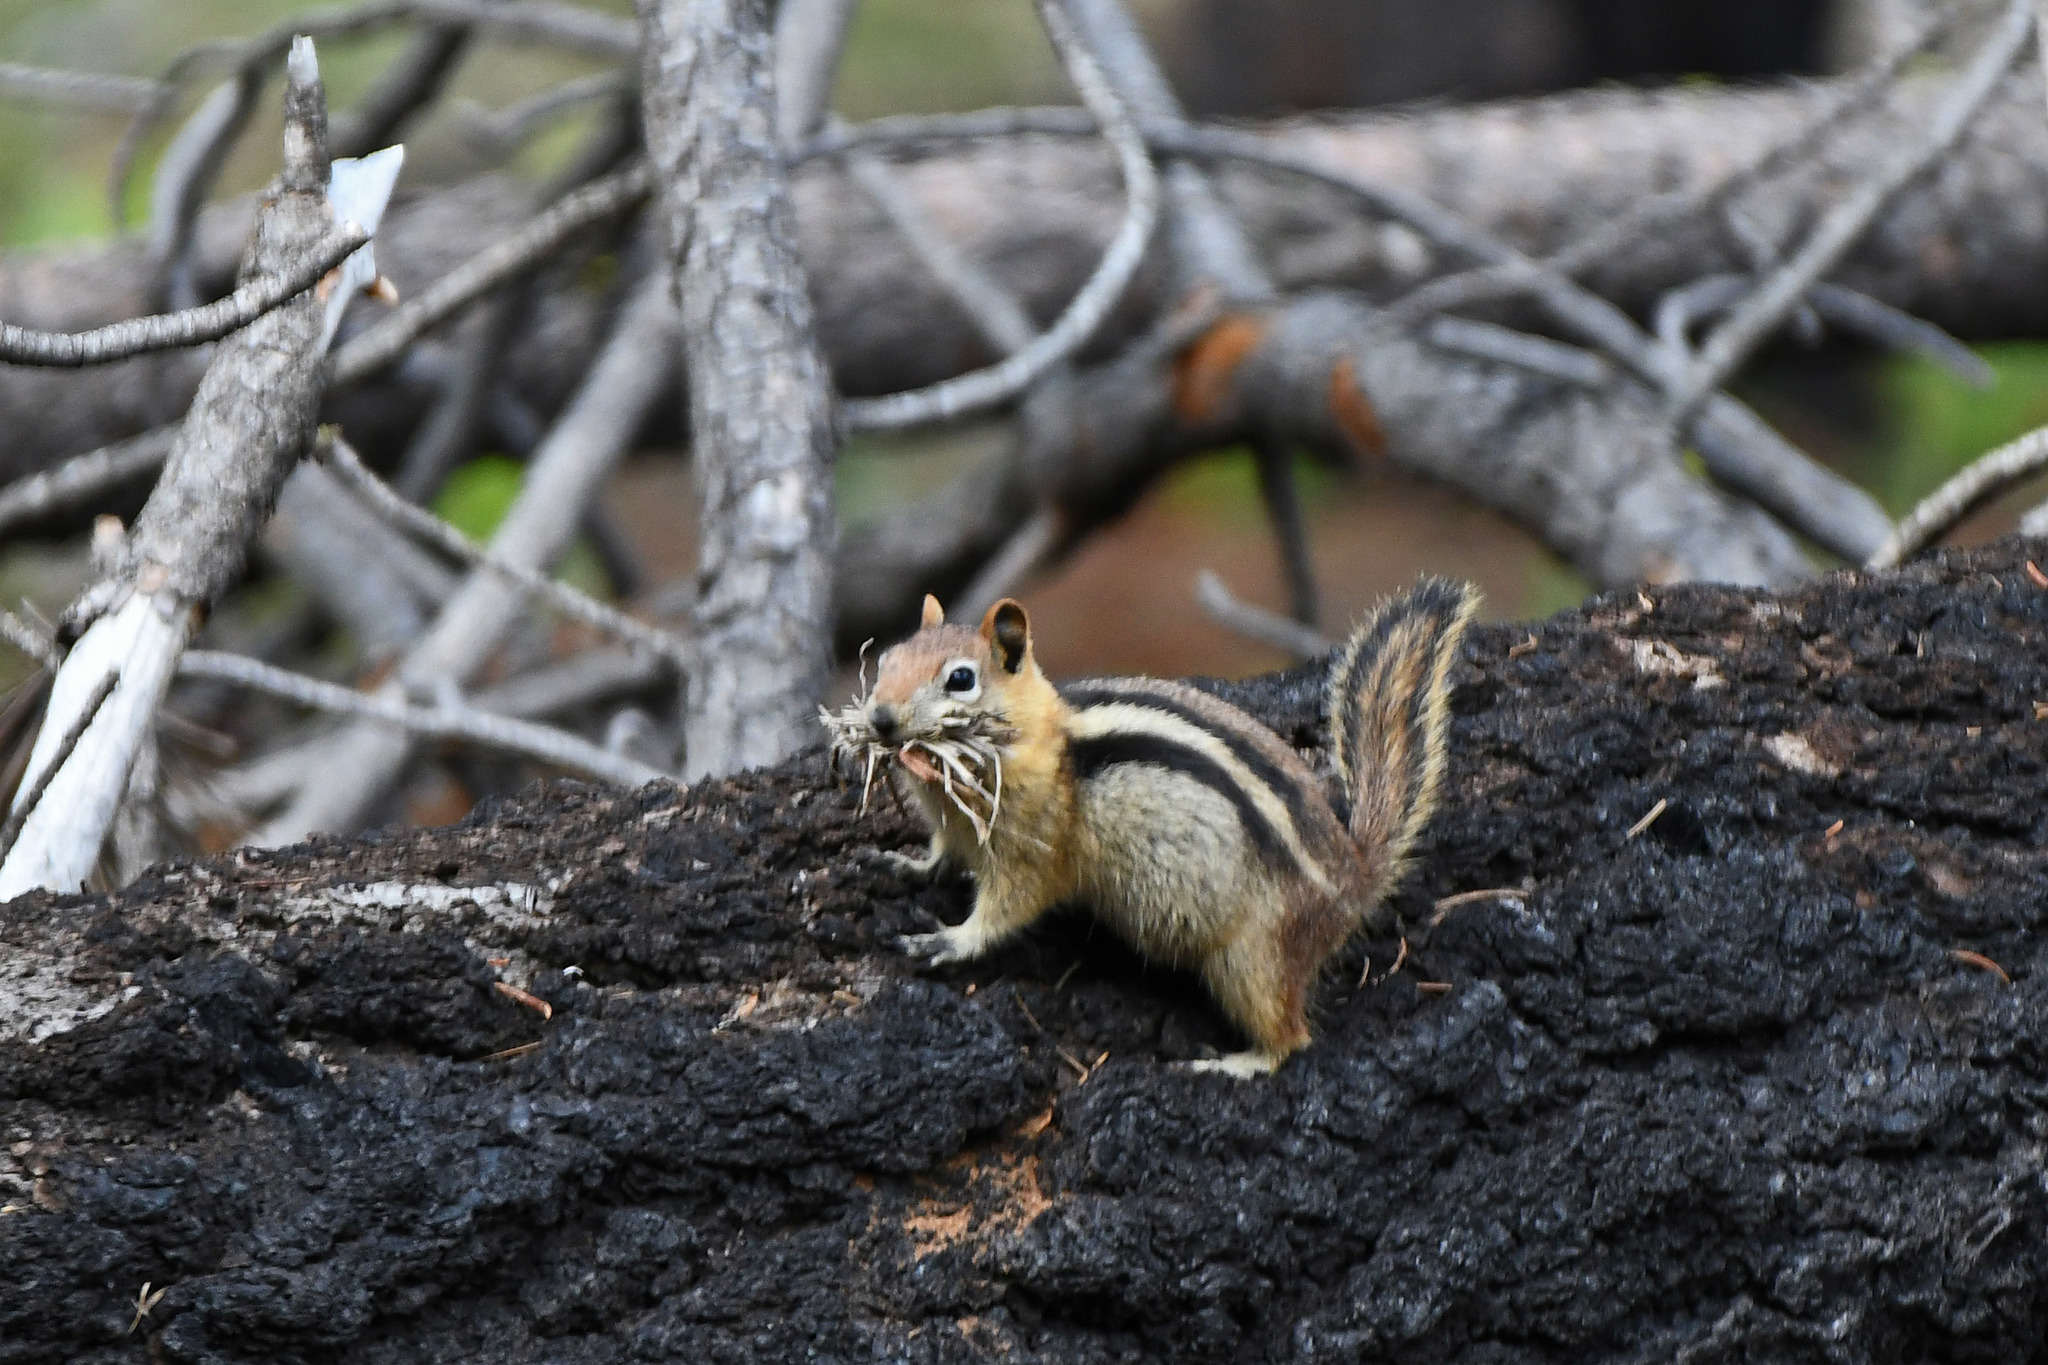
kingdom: Animalia
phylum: Chordata
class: Mammalia
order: Rodentia
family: Sciuridae
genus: Callospermophilus
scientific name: Callospermophilus lateralis
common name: Golden-mantled ground squirrel
